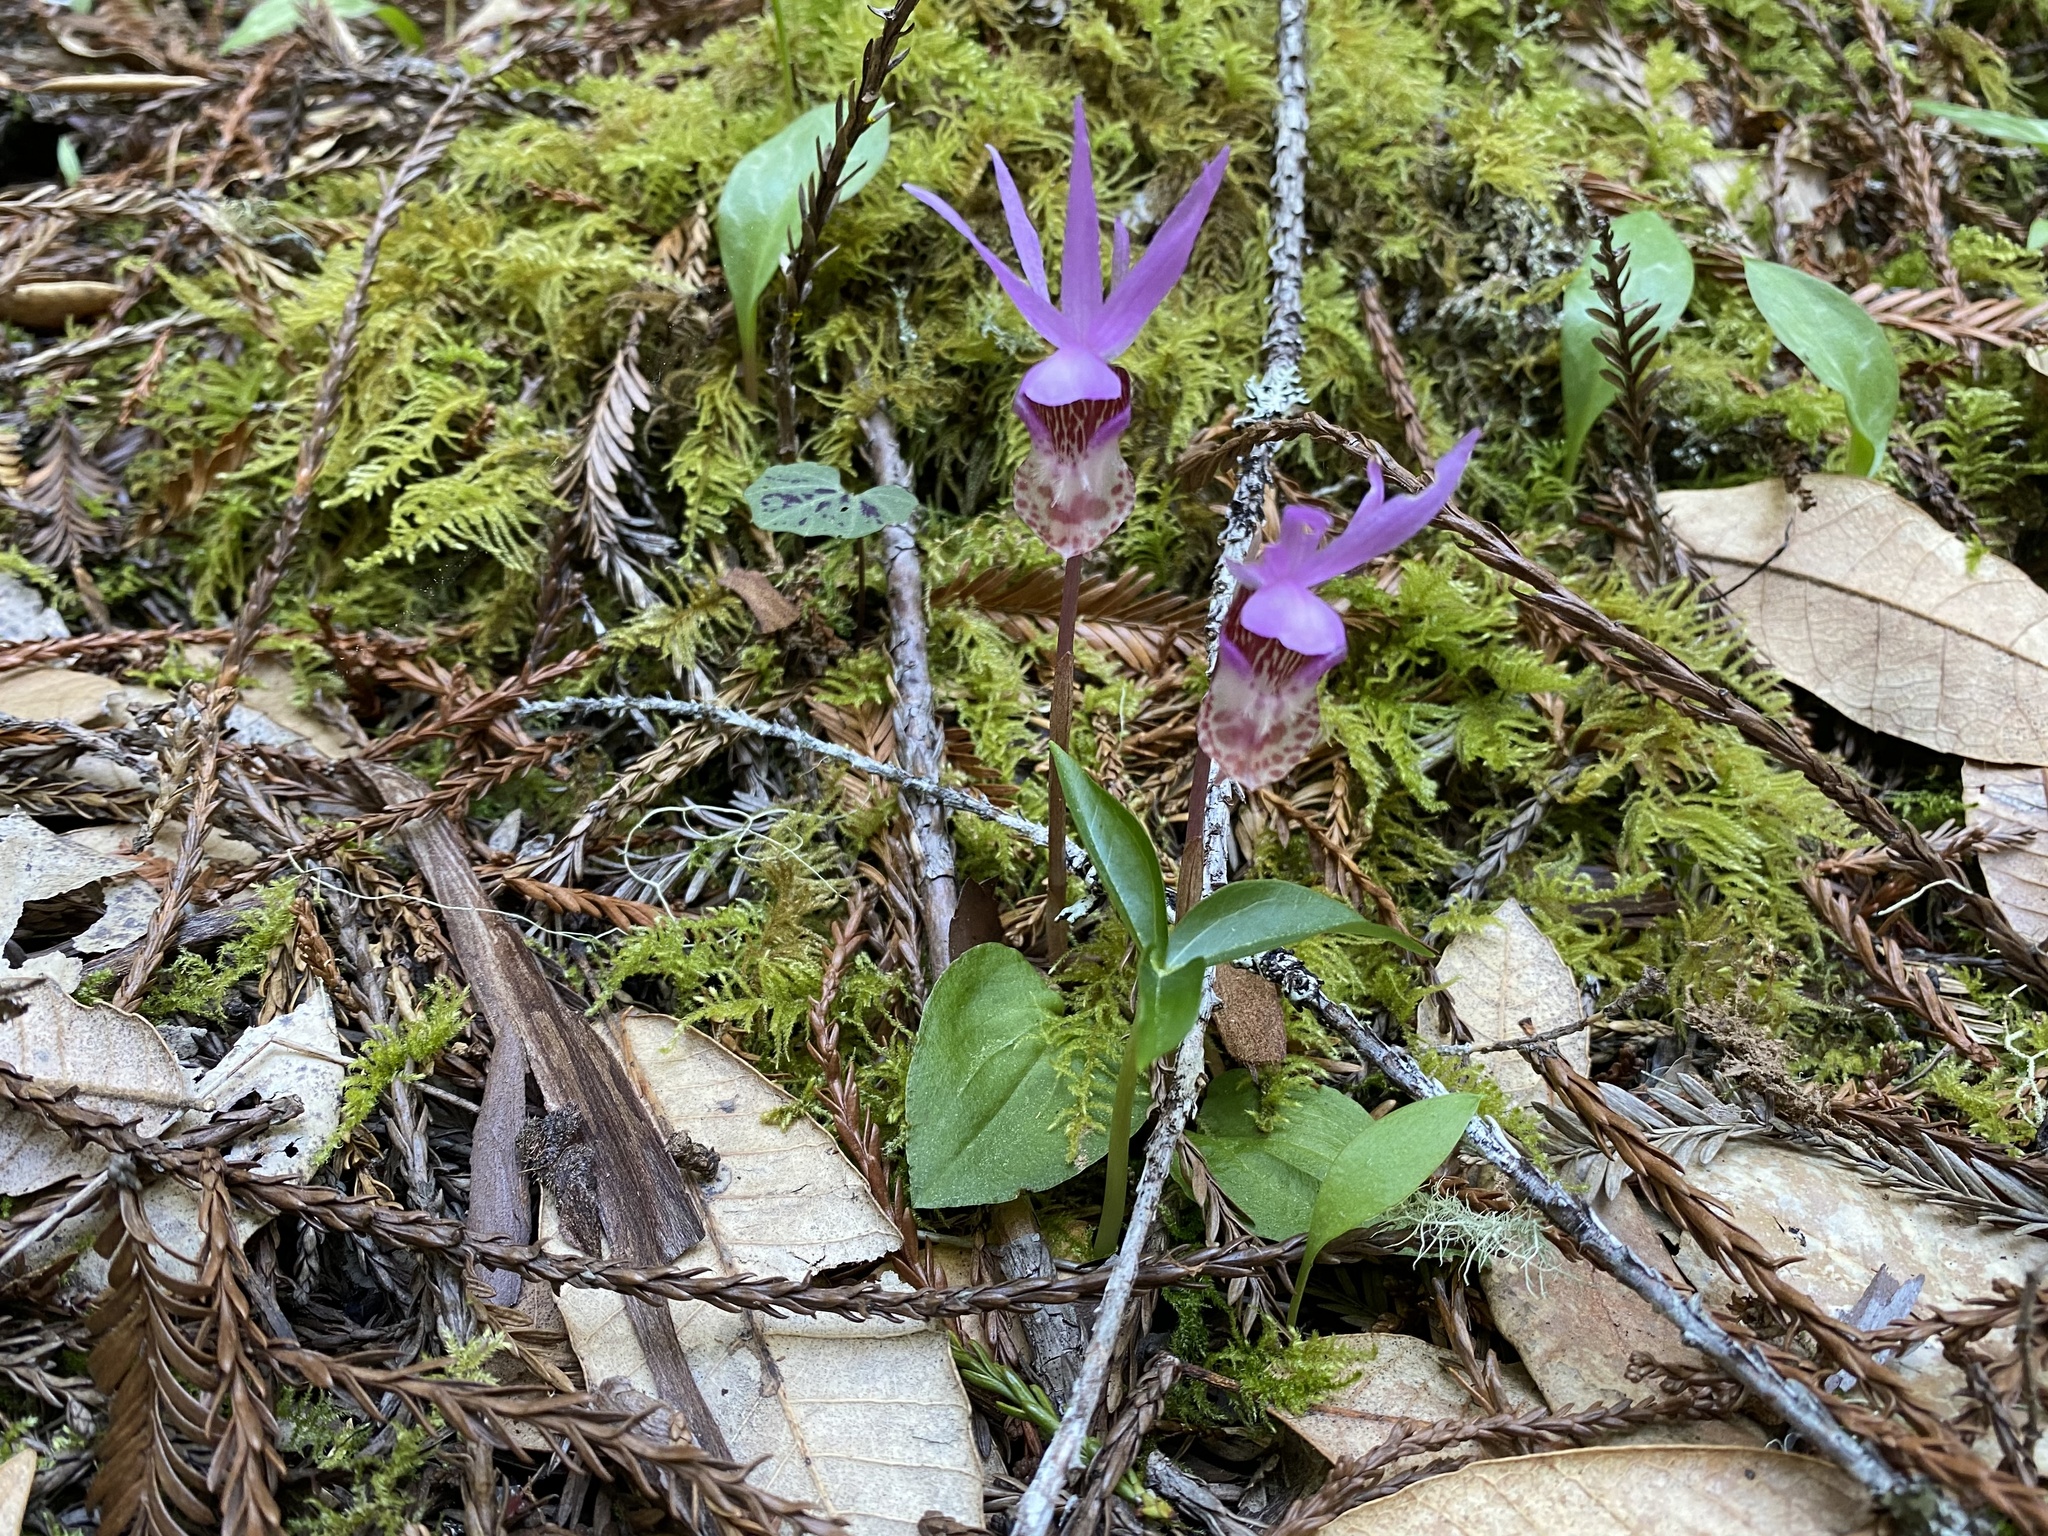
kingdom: Plantae
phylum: Tracheophyta
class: Liliopsida
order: Asparagales
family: Orchidaceae
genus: Calypso
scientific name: Calypso bulbosa
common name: Calypso
